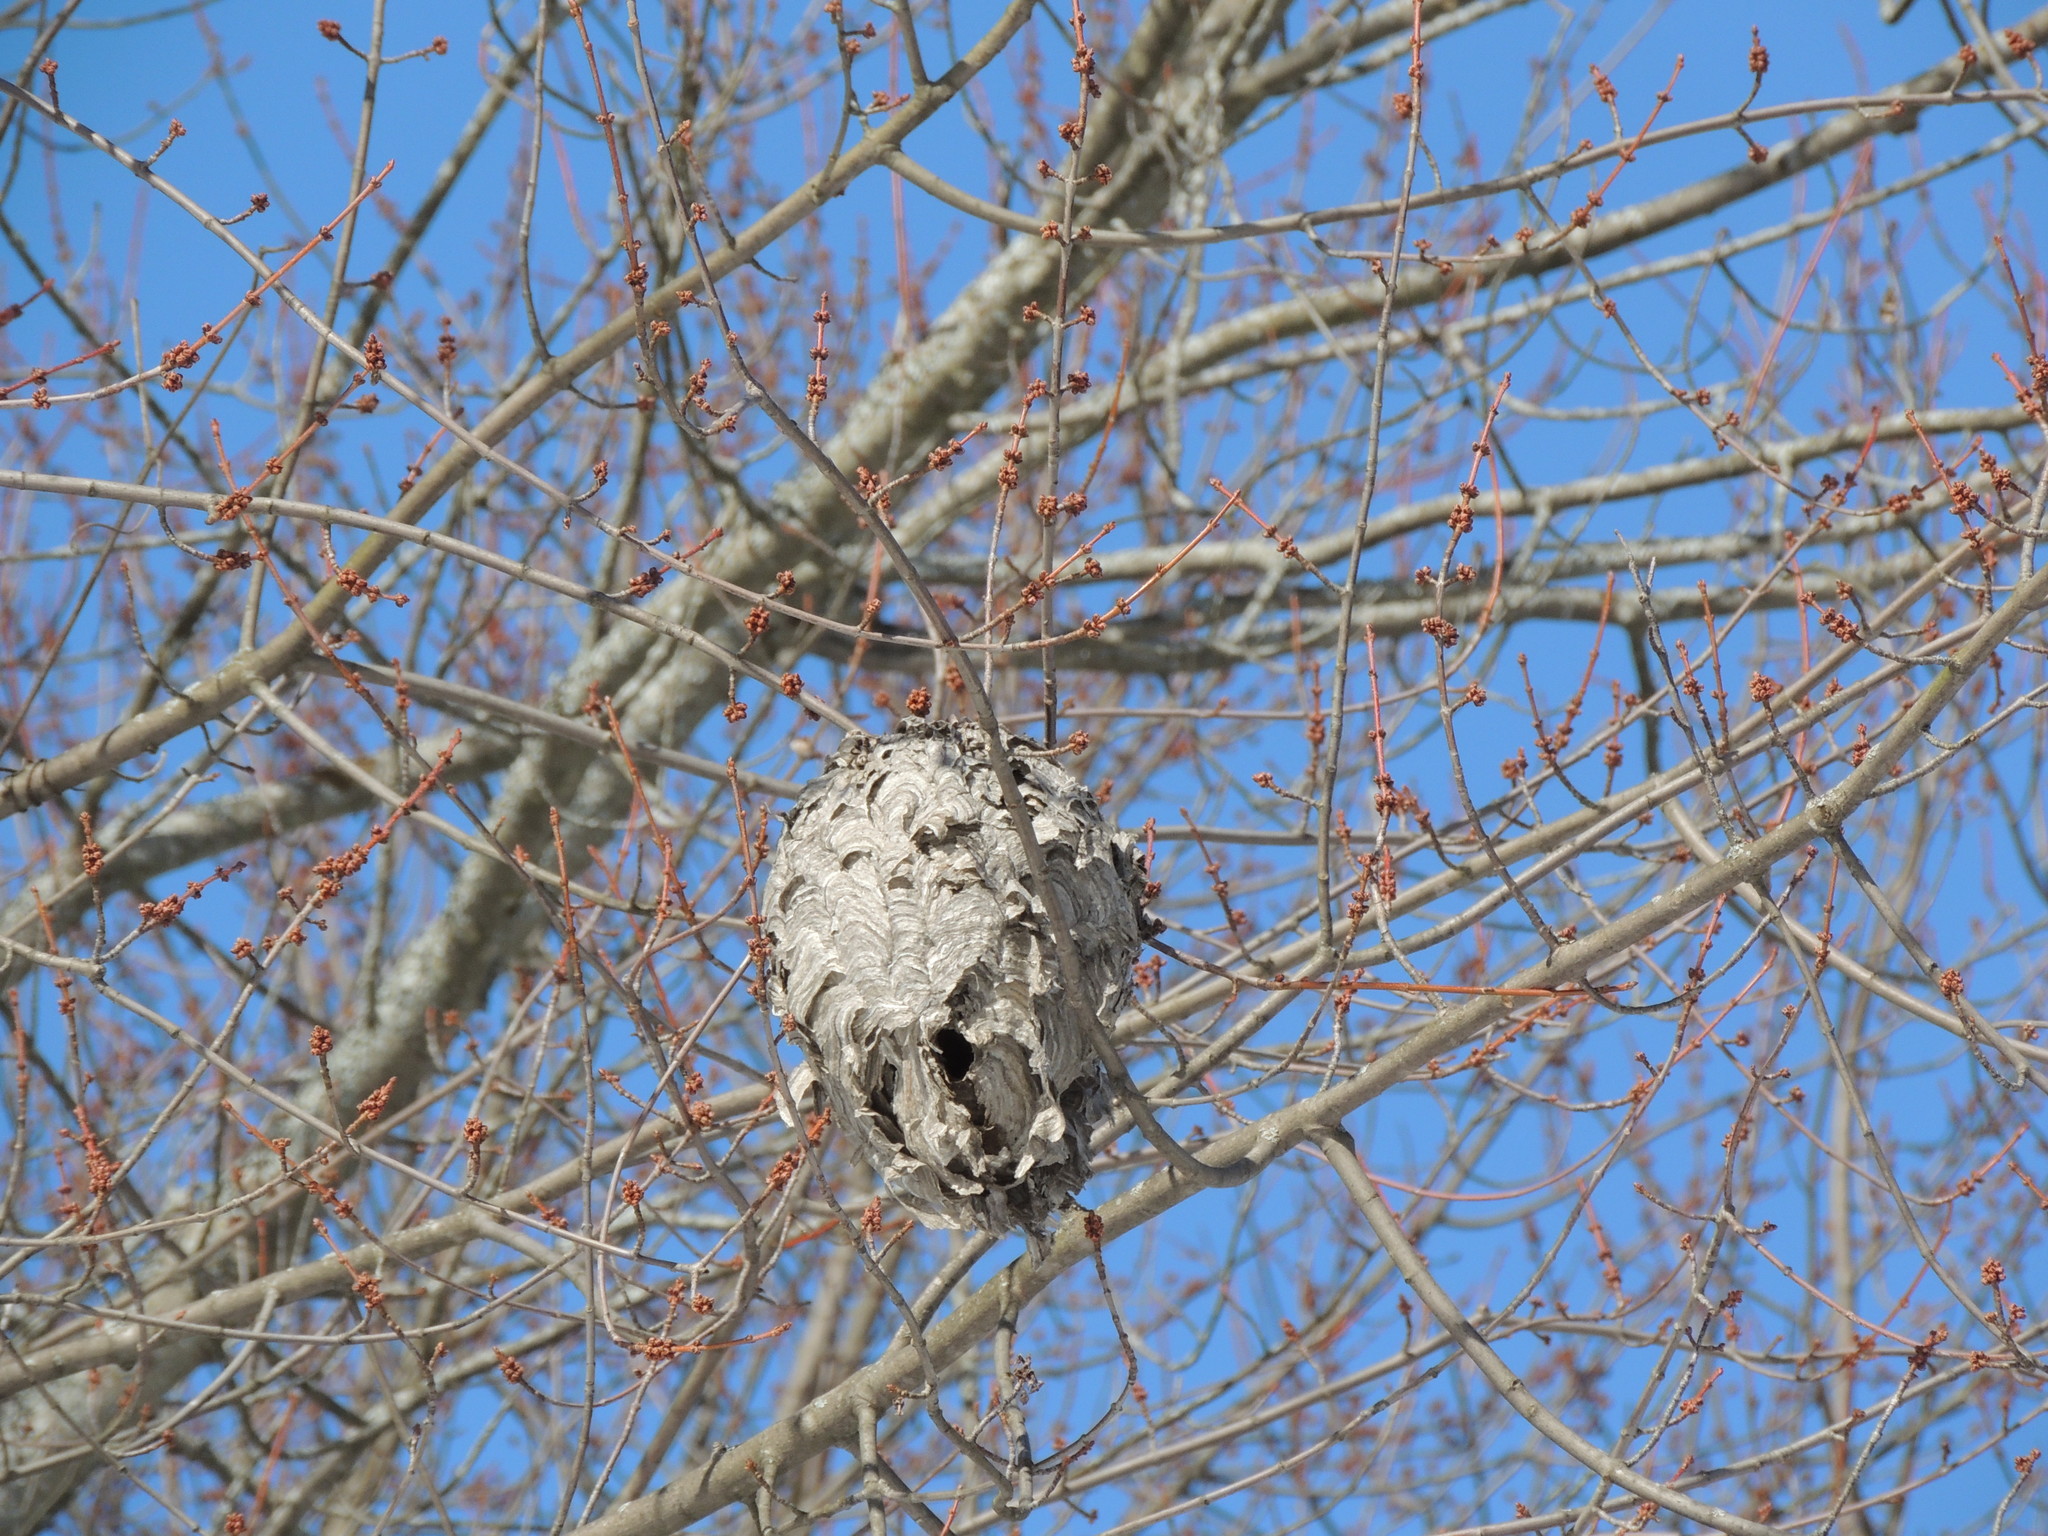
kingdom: Animalia
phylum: Arthropoda
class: Insecta
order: Hymenoptera
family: Vespidae
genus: Dolichovespula
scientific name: Dolichovespula maculata
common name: Bald-faced hornet
